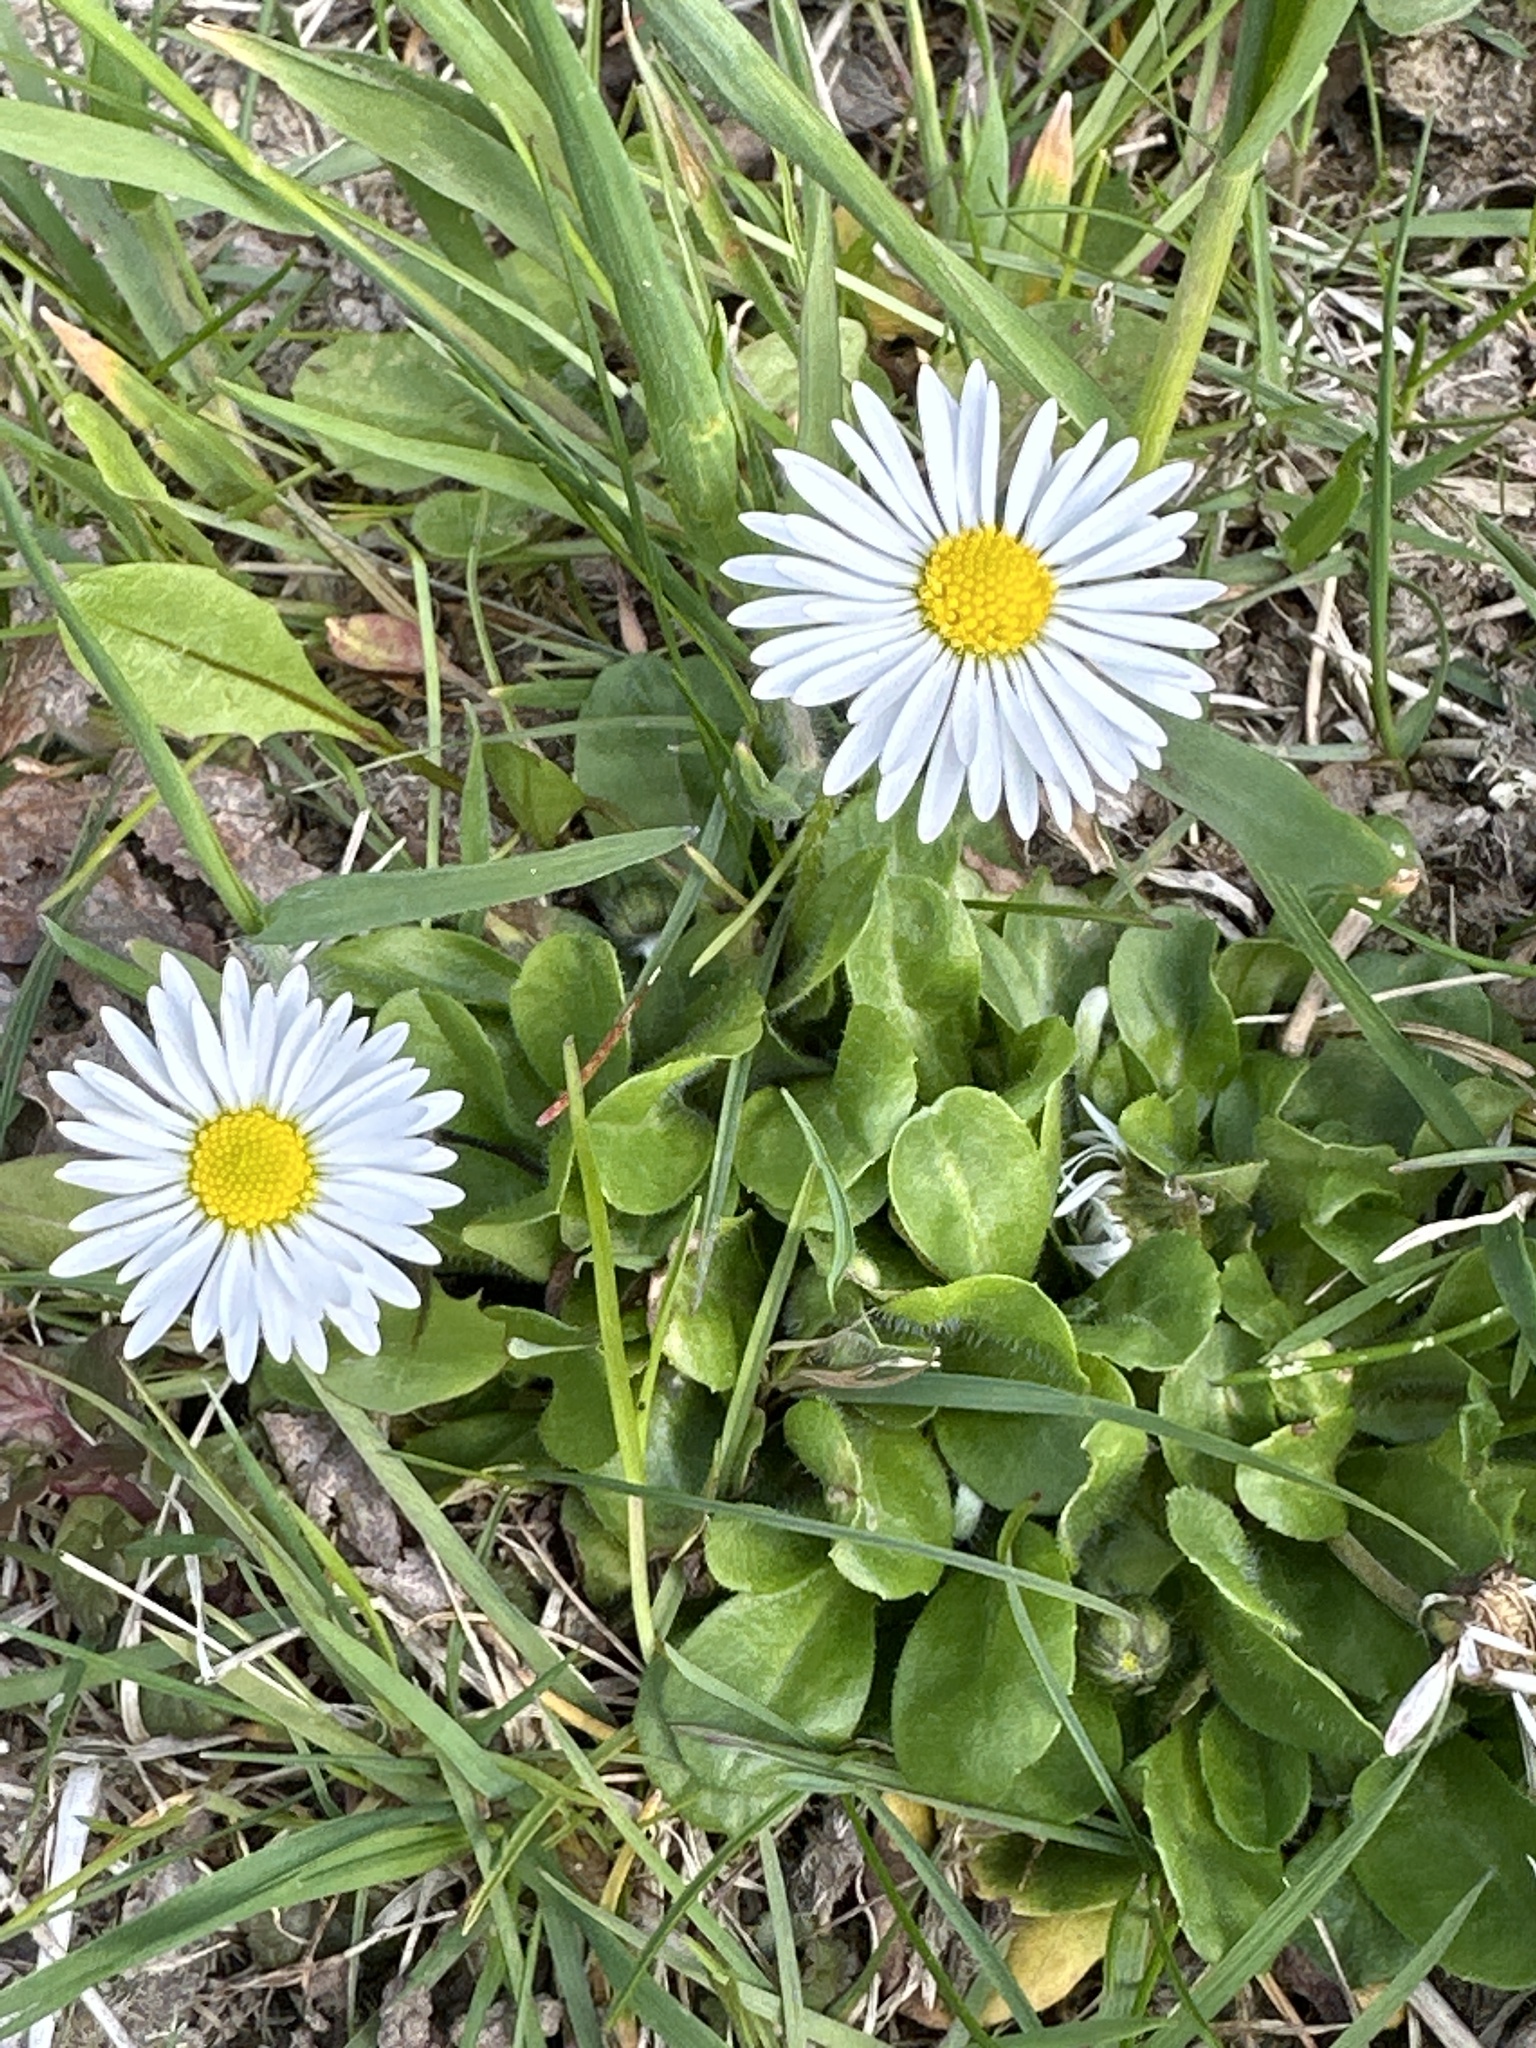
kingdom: Plantae
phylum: Tracheophyta
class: Magnoliopsida
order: Asterales
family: Asteraceae
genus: Bellis
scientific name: Bellis perennis
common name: Lawndaisy
